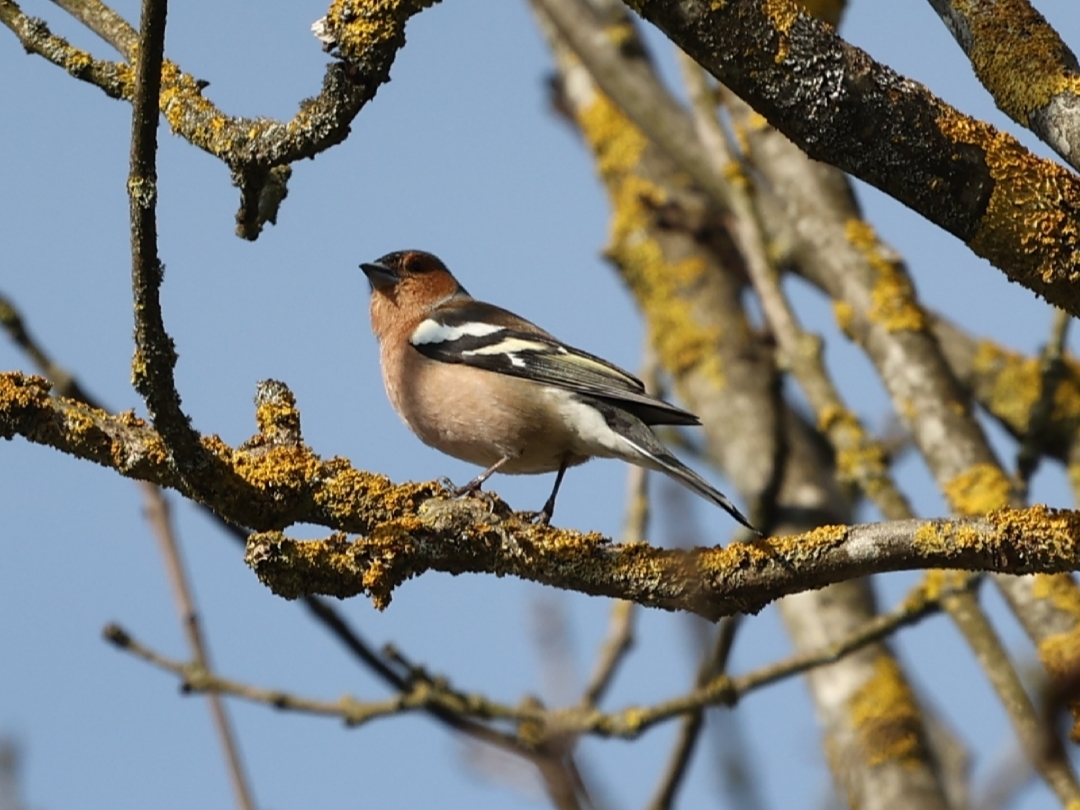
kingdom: Animalia
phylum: Chordata
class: Aves
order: Passeriformes
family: Fringillidae
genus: Fringilla
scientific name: Fringilla coelebs
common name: Common chaffinch
